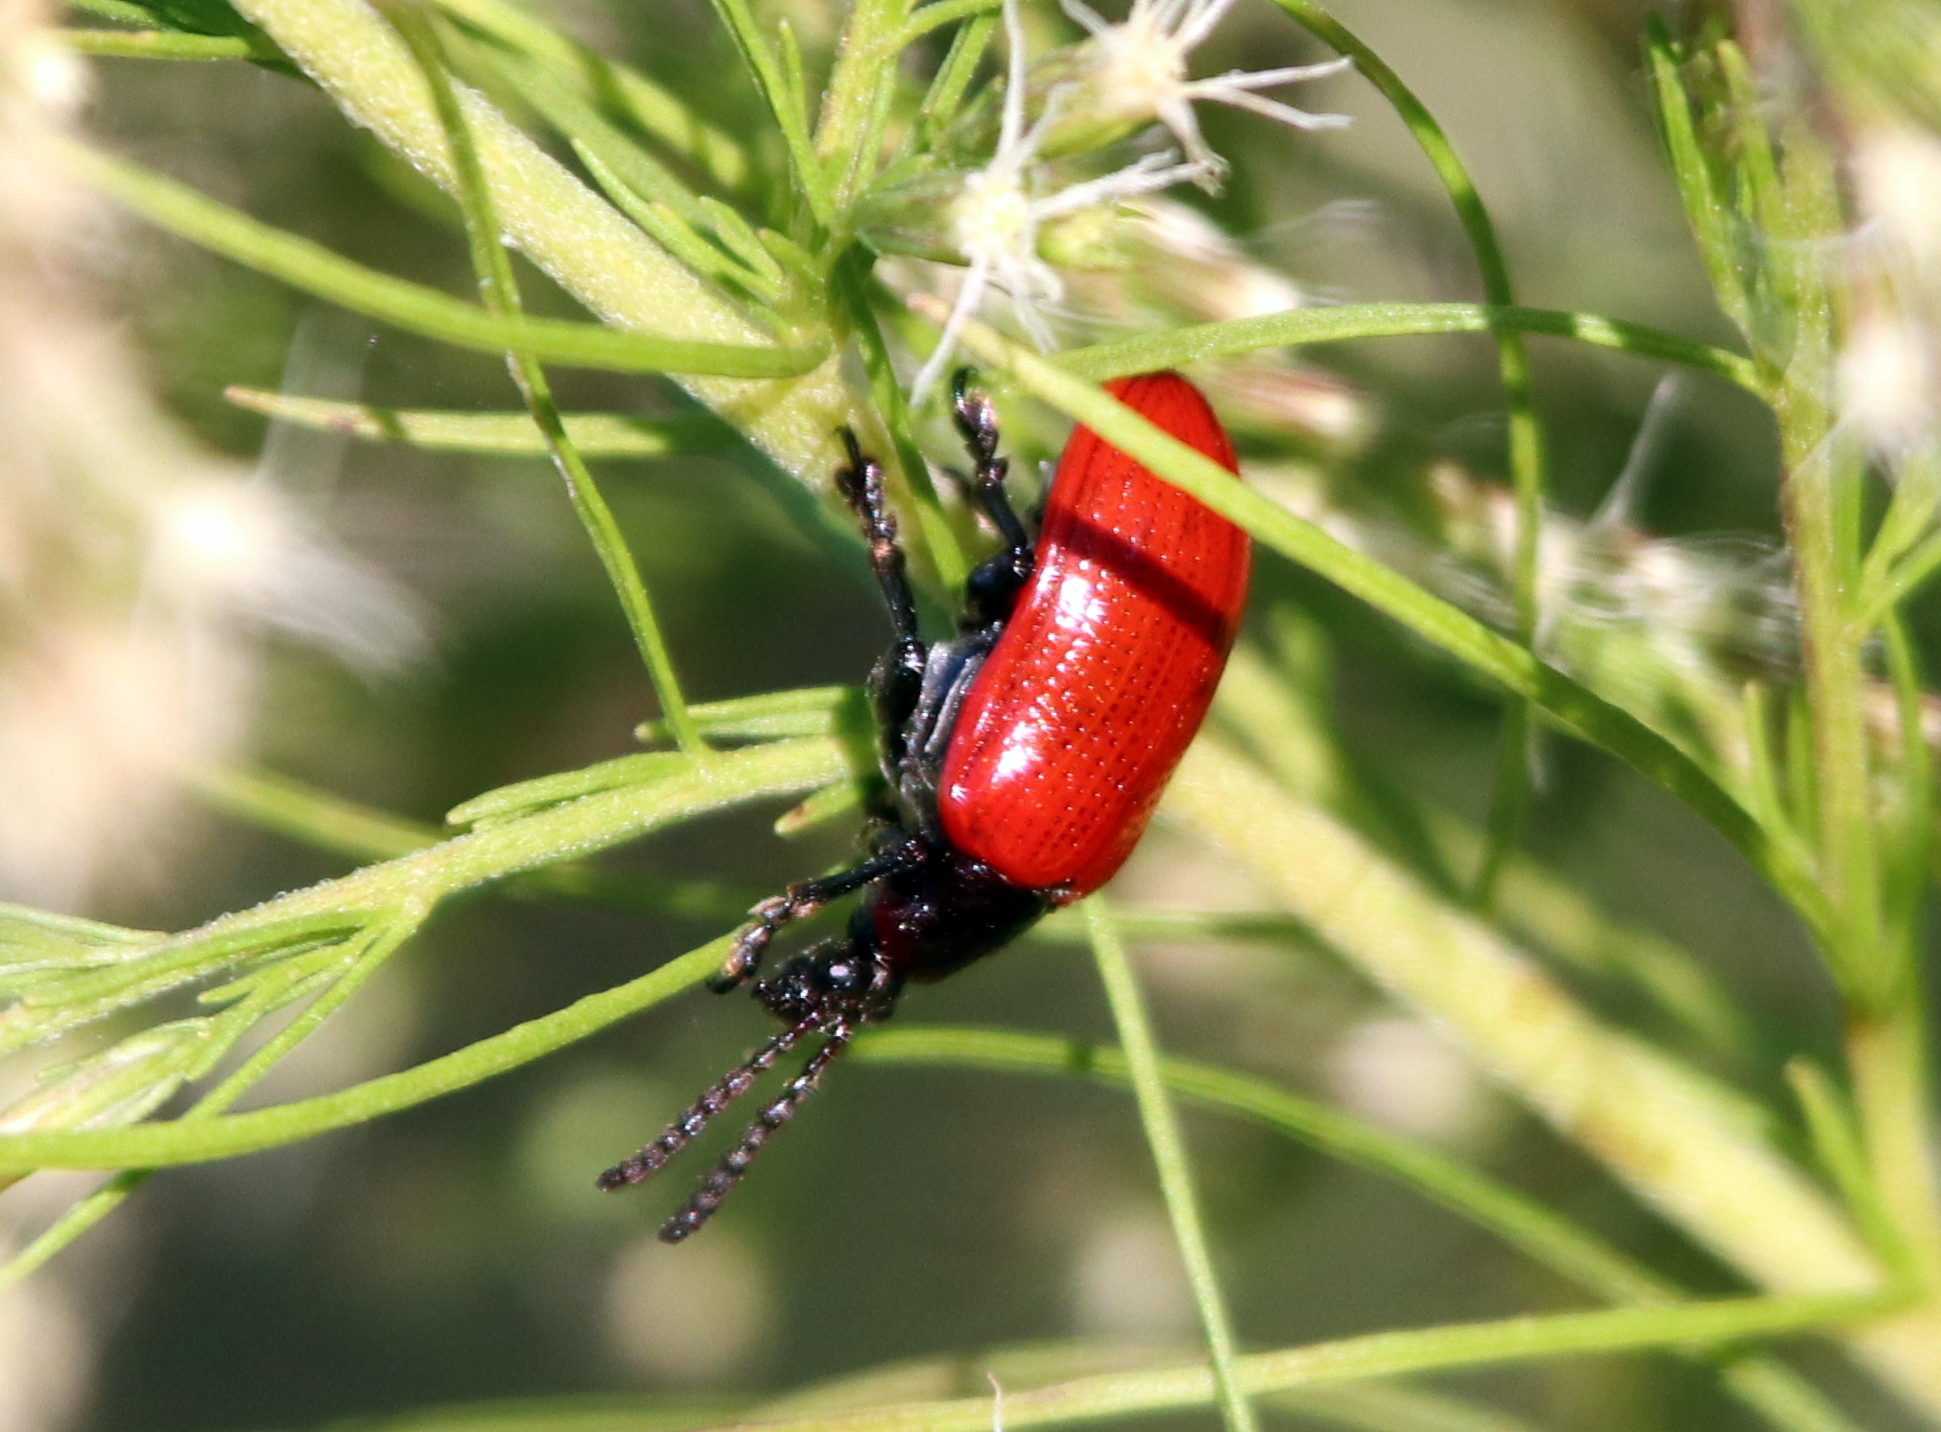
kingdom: Animalia
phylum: Arthropoda
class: Insecta
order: Coleoptera
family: Chrysomelidae
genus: Lilioceris
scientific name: Lilioceris cheni
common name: Leaf beetle
